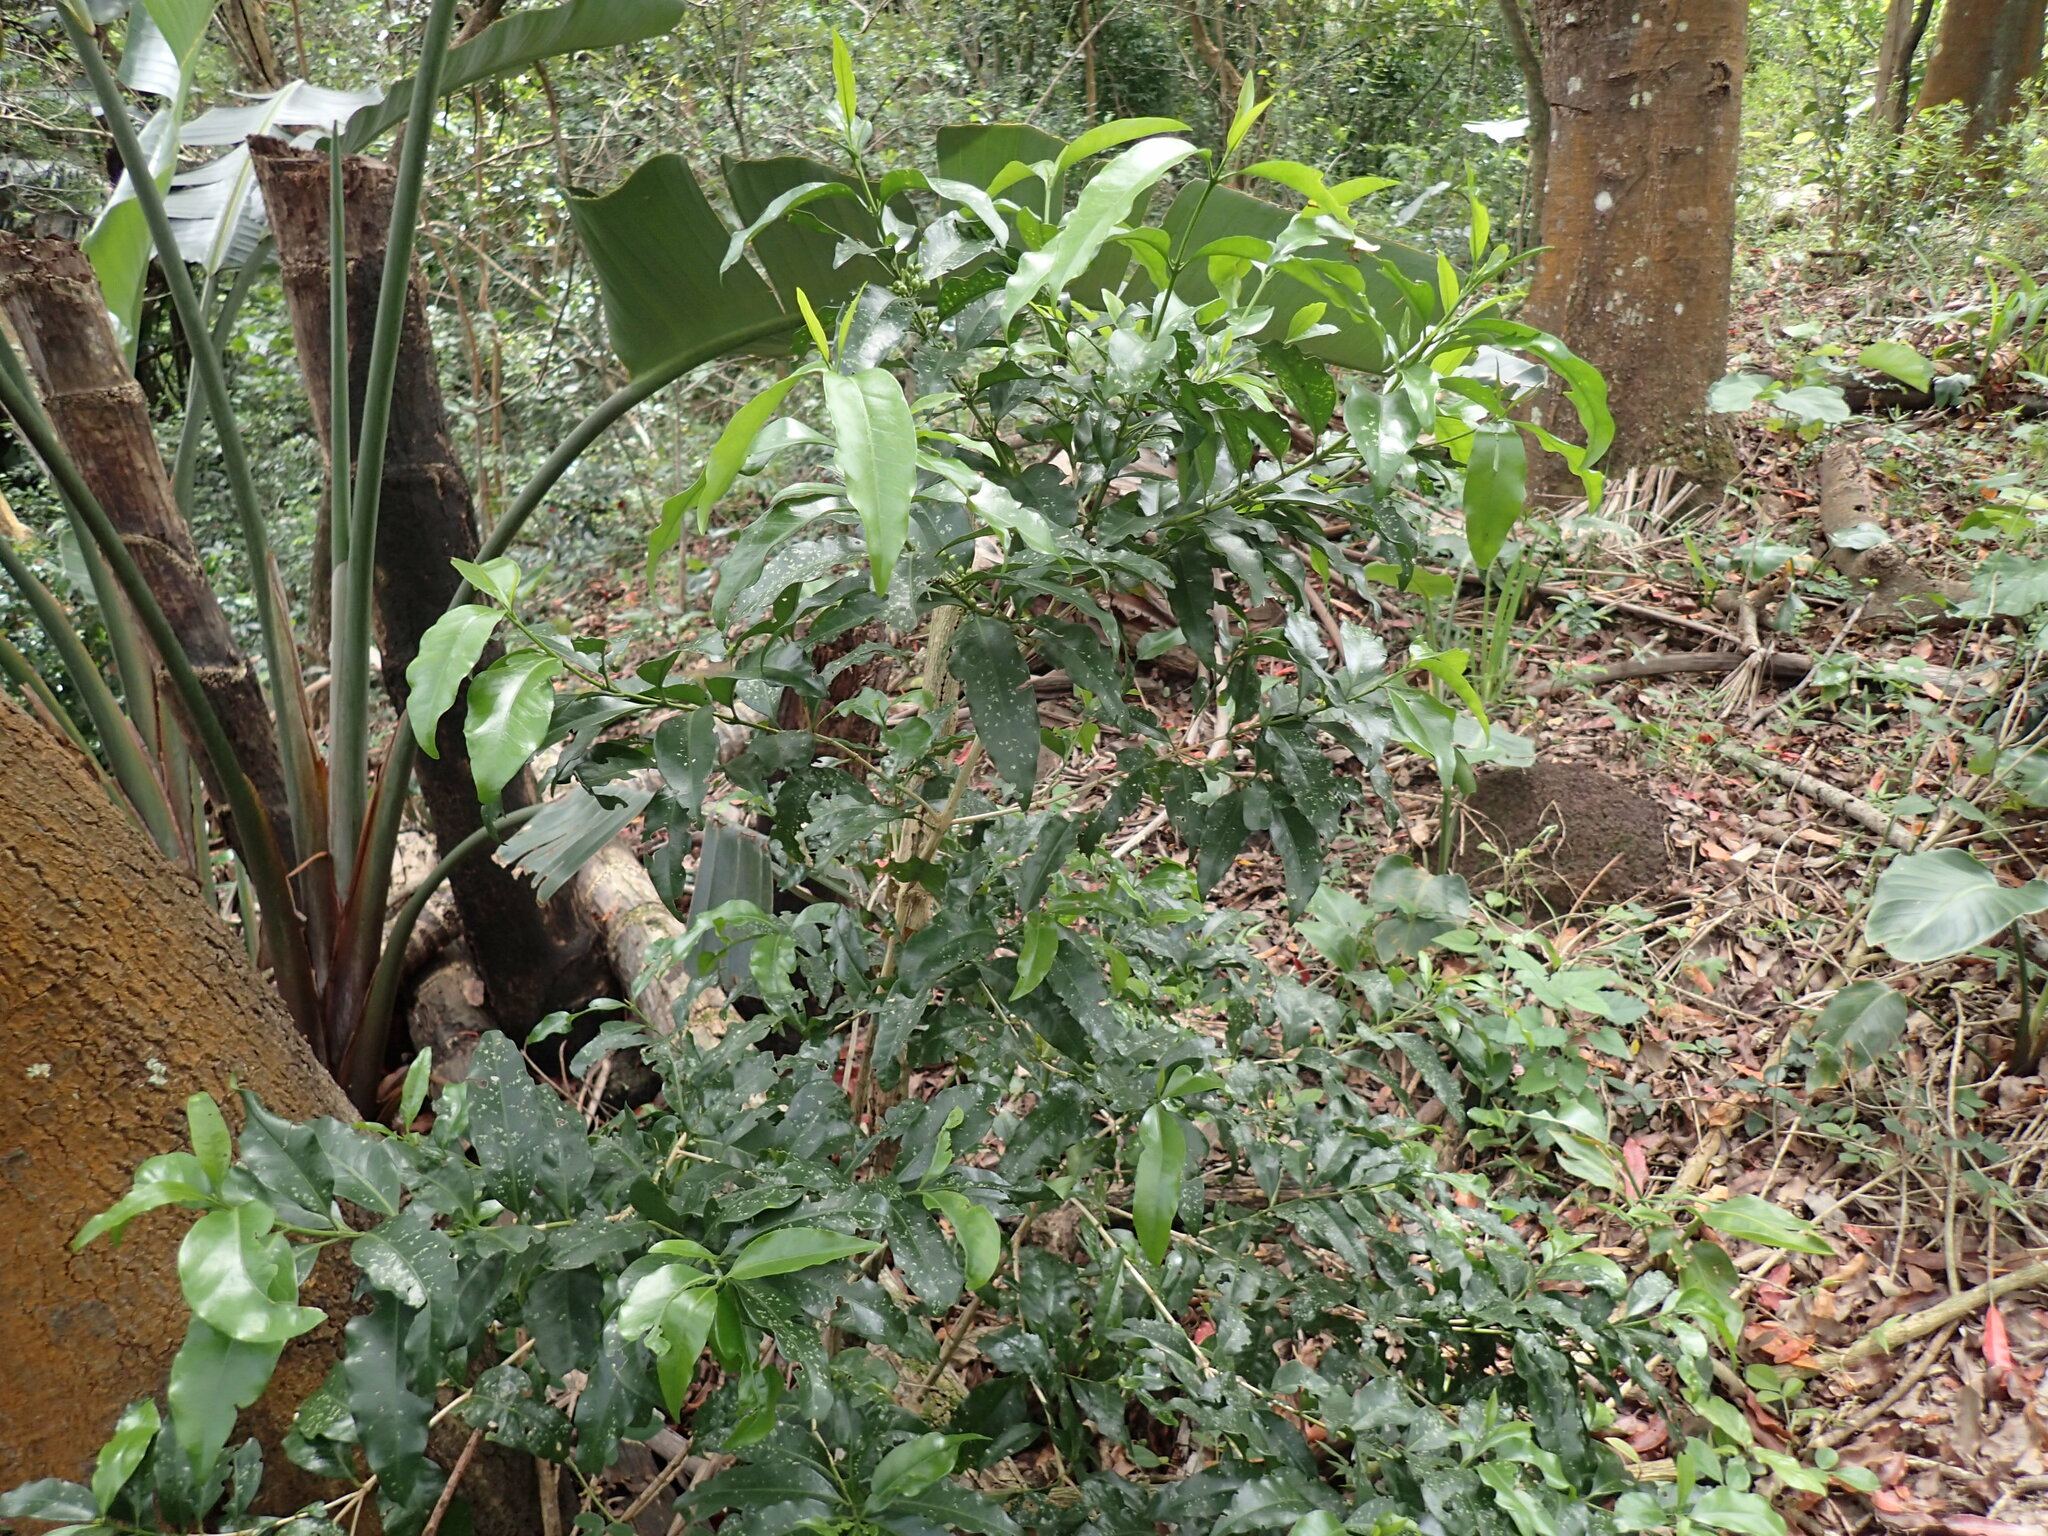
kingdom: Plantae
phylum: Tracheophyta
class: Magnoliopsida
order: Gentianales
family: Rubiaceae
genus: Empogona
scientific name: Empogona lanceolata
